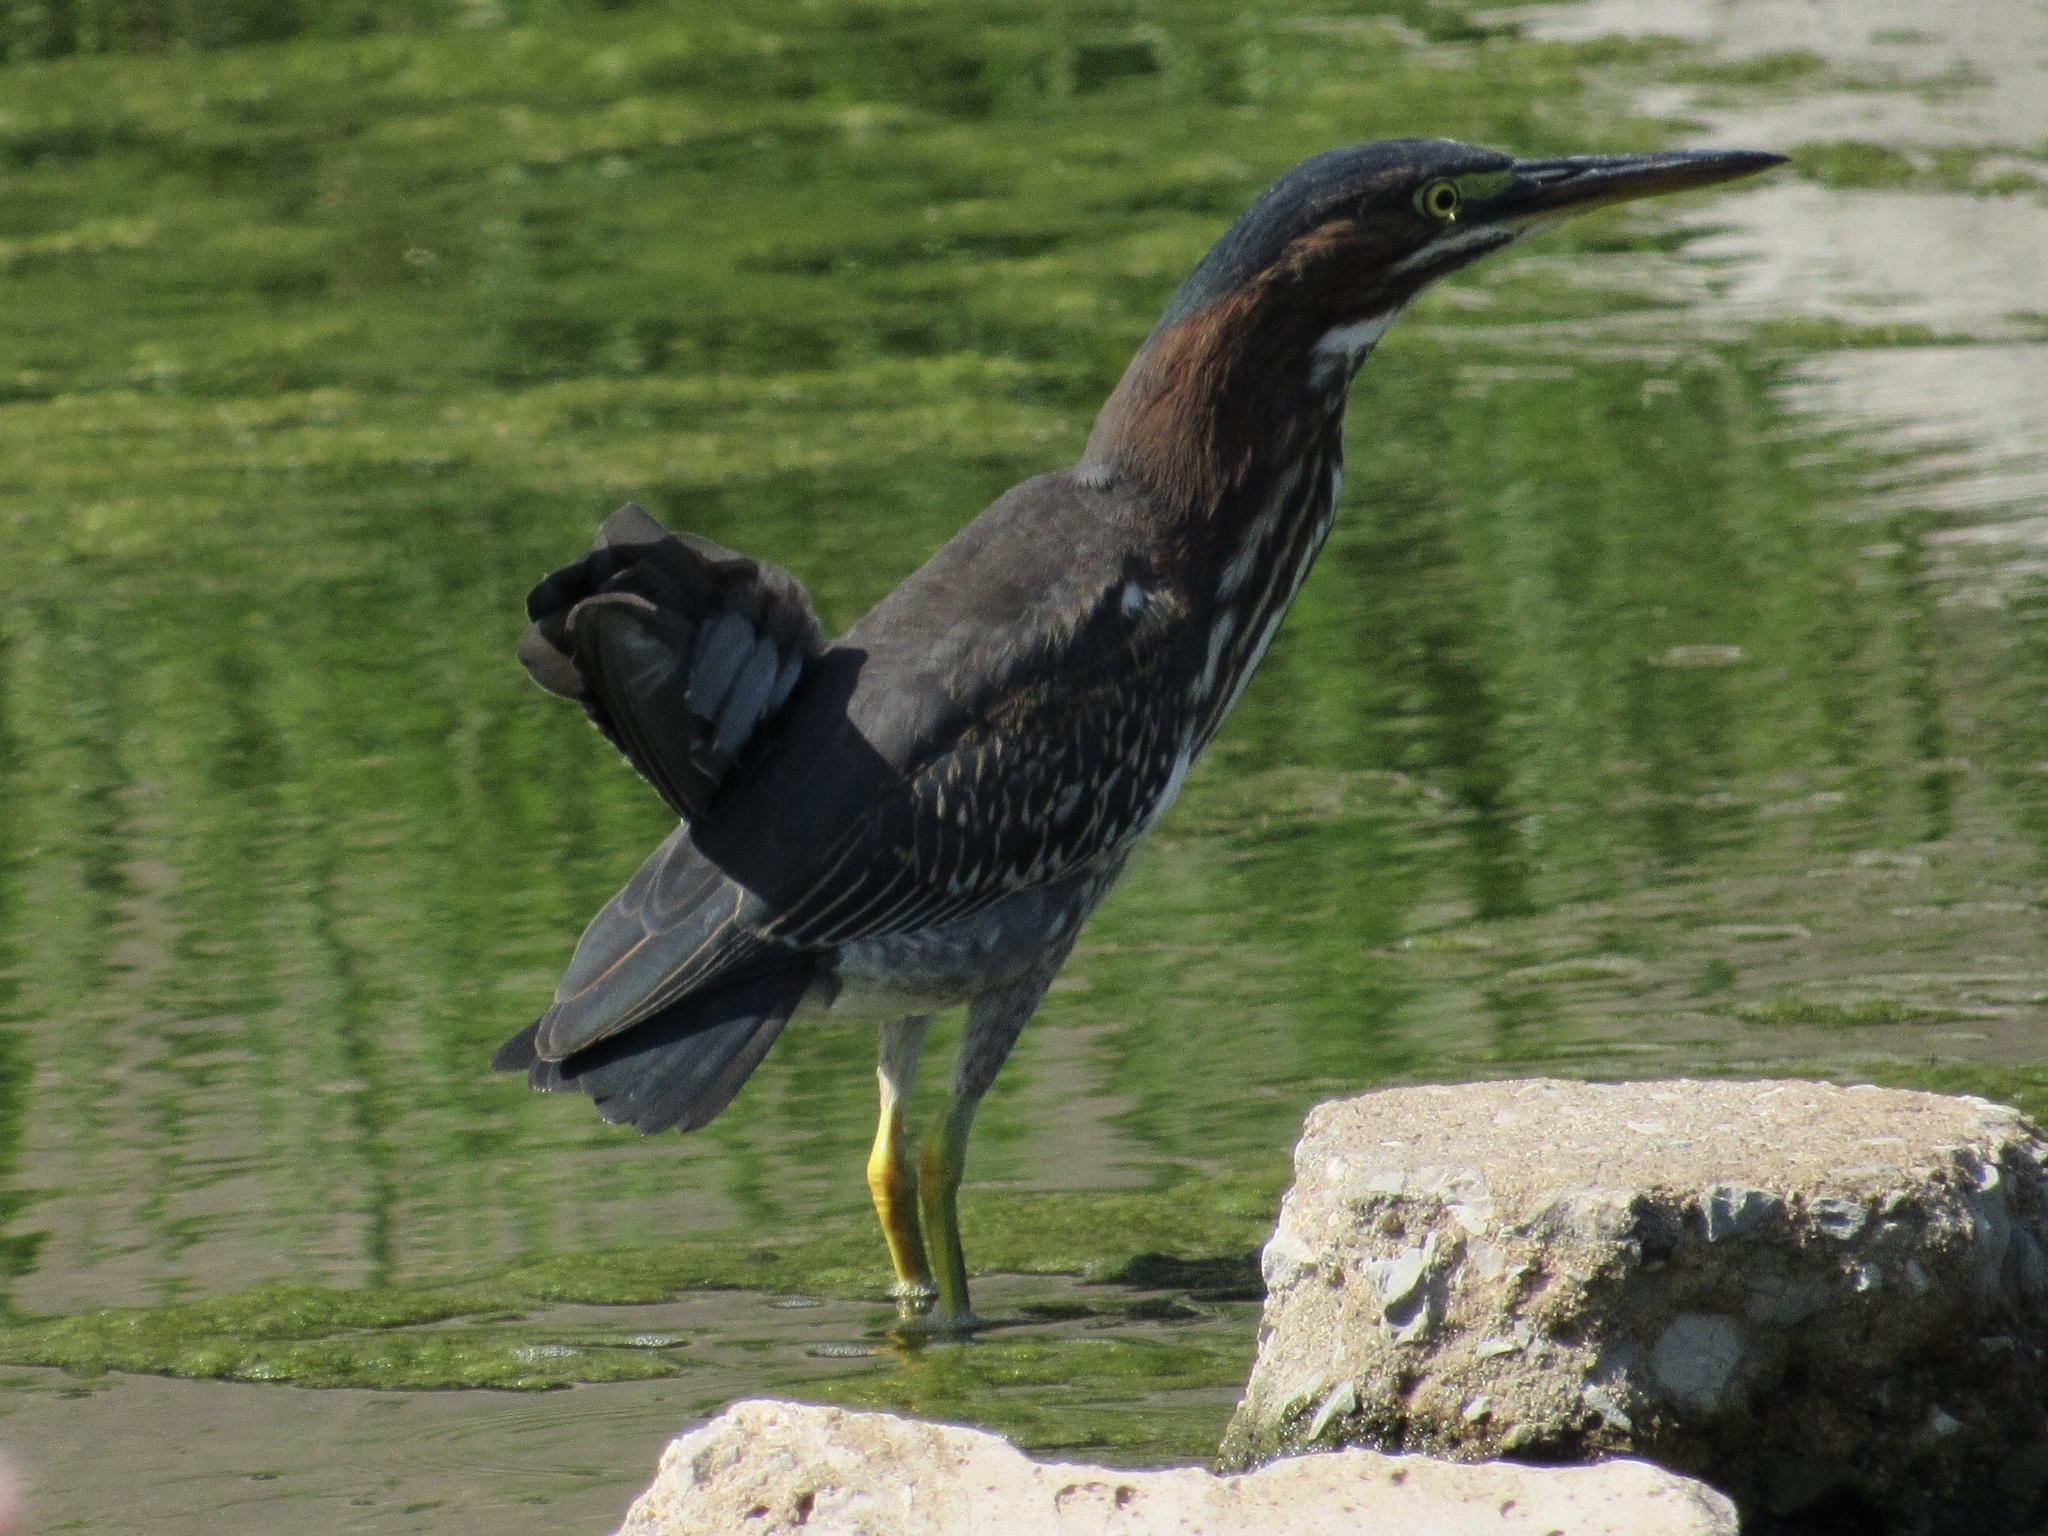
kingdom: Animalia
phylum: Chordata
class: Aves
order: Pelecaniformes
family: Ardeidae
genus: Butorides
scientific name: Butorides virescens
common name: Green heron
